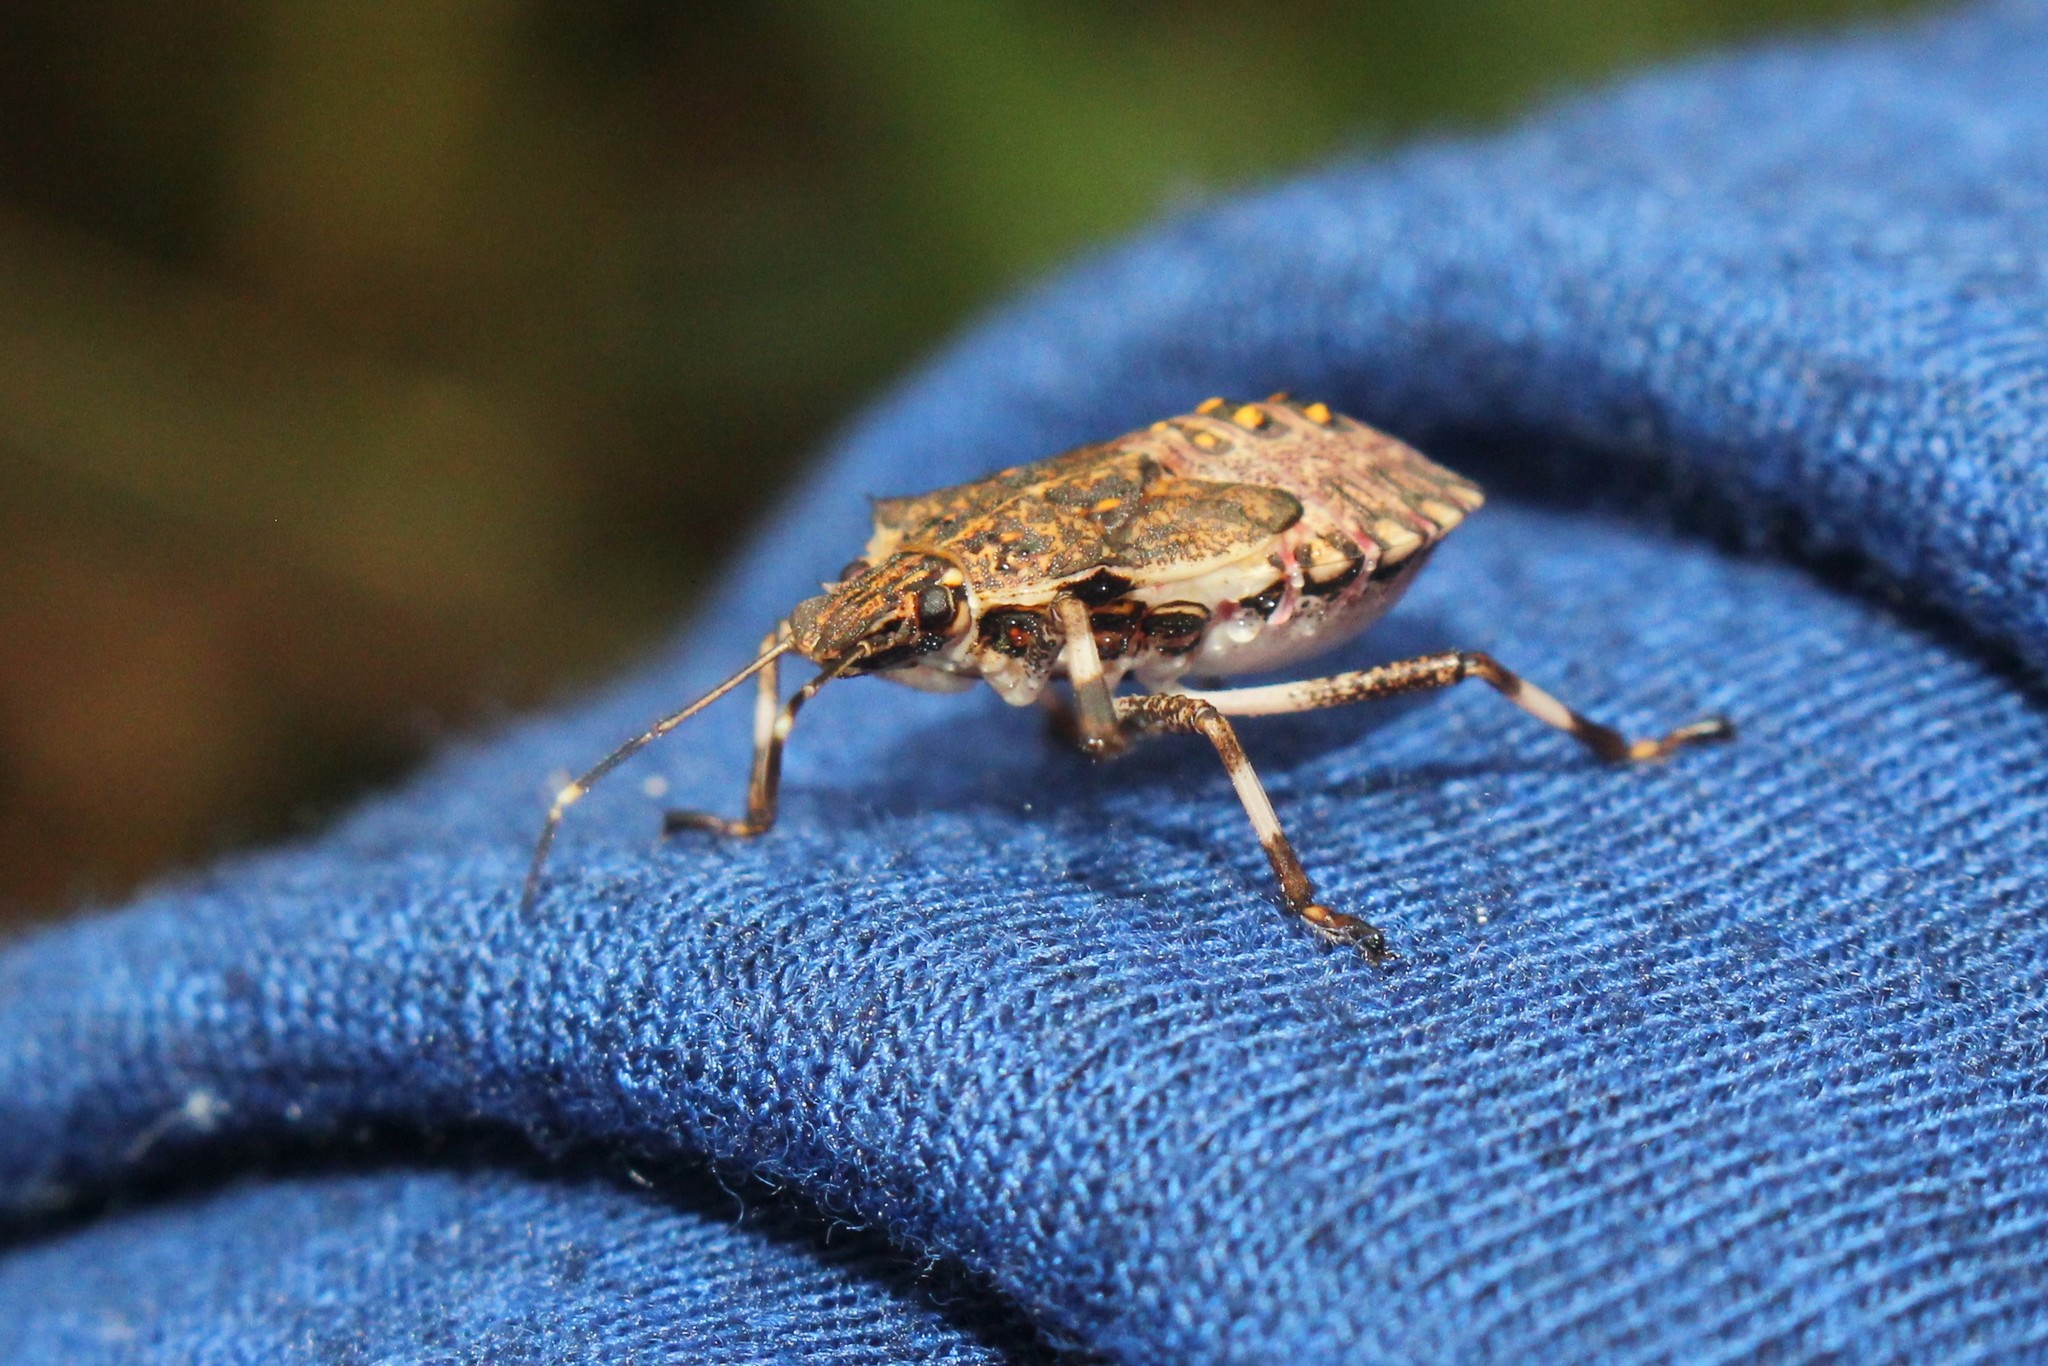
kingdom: Animalia
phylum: Arthropoda
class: Insecta
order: Hemiptera
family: Pentatomidae
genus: Halyomorpha
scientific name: Halyomorpha halys
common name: Brown marmorated stink bug
